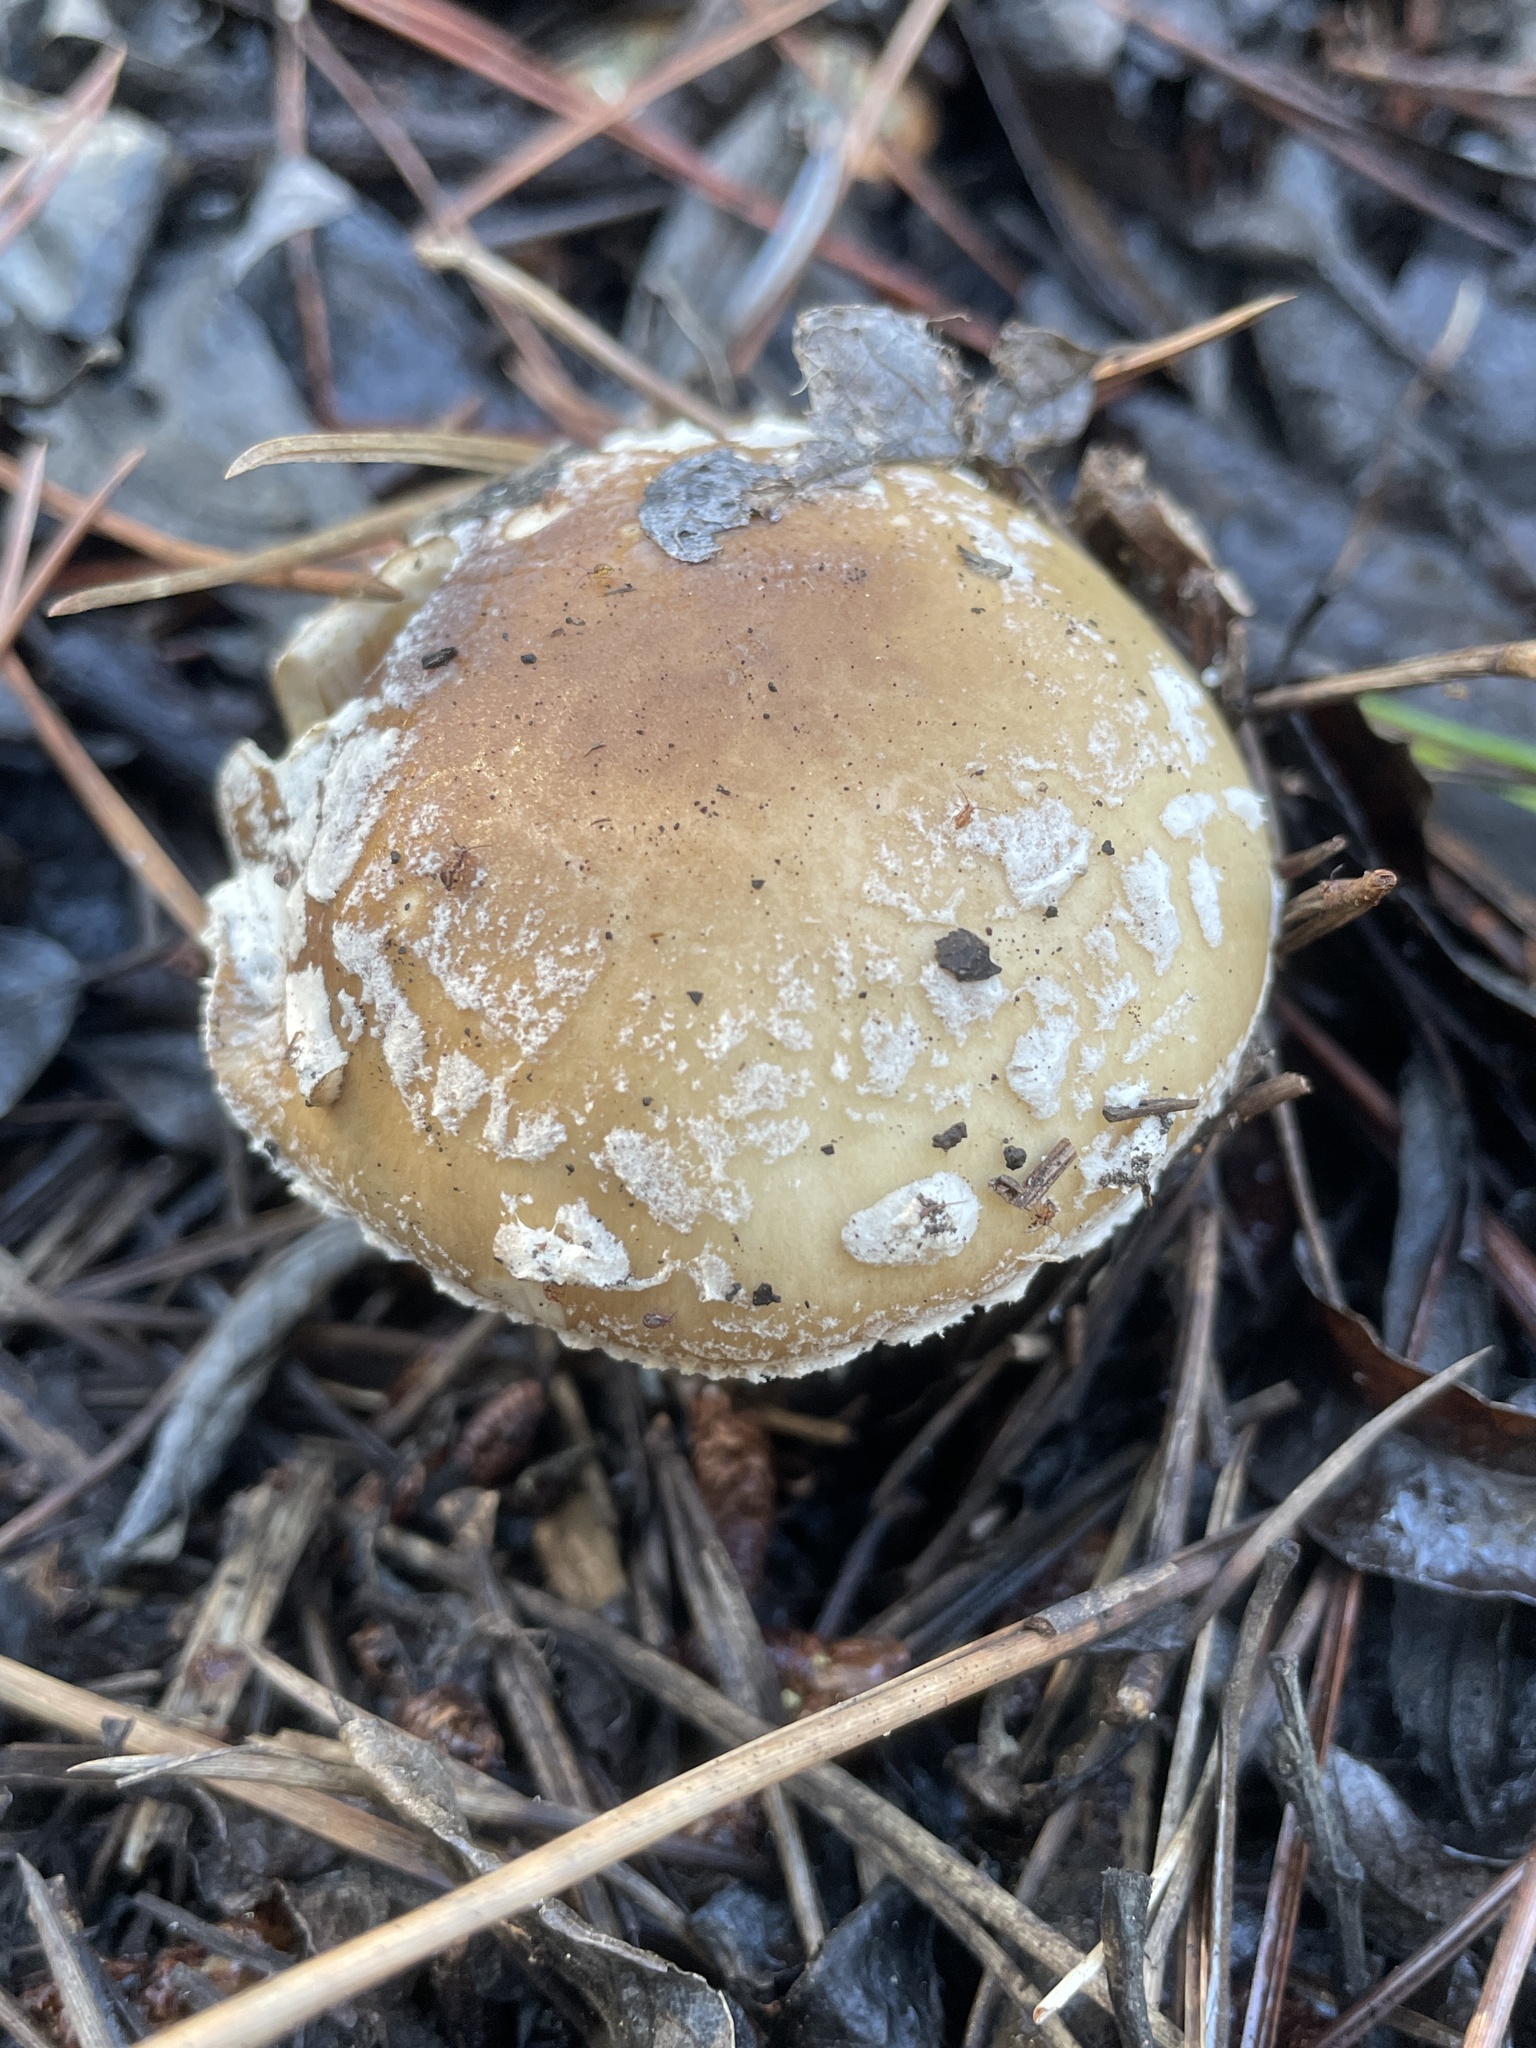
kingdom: Fungi
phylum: Basidiomycota
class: Agaricomycetes
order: Agaricales
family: Amanitaceae
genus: Amanita
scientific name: Amanita pantherinoides
